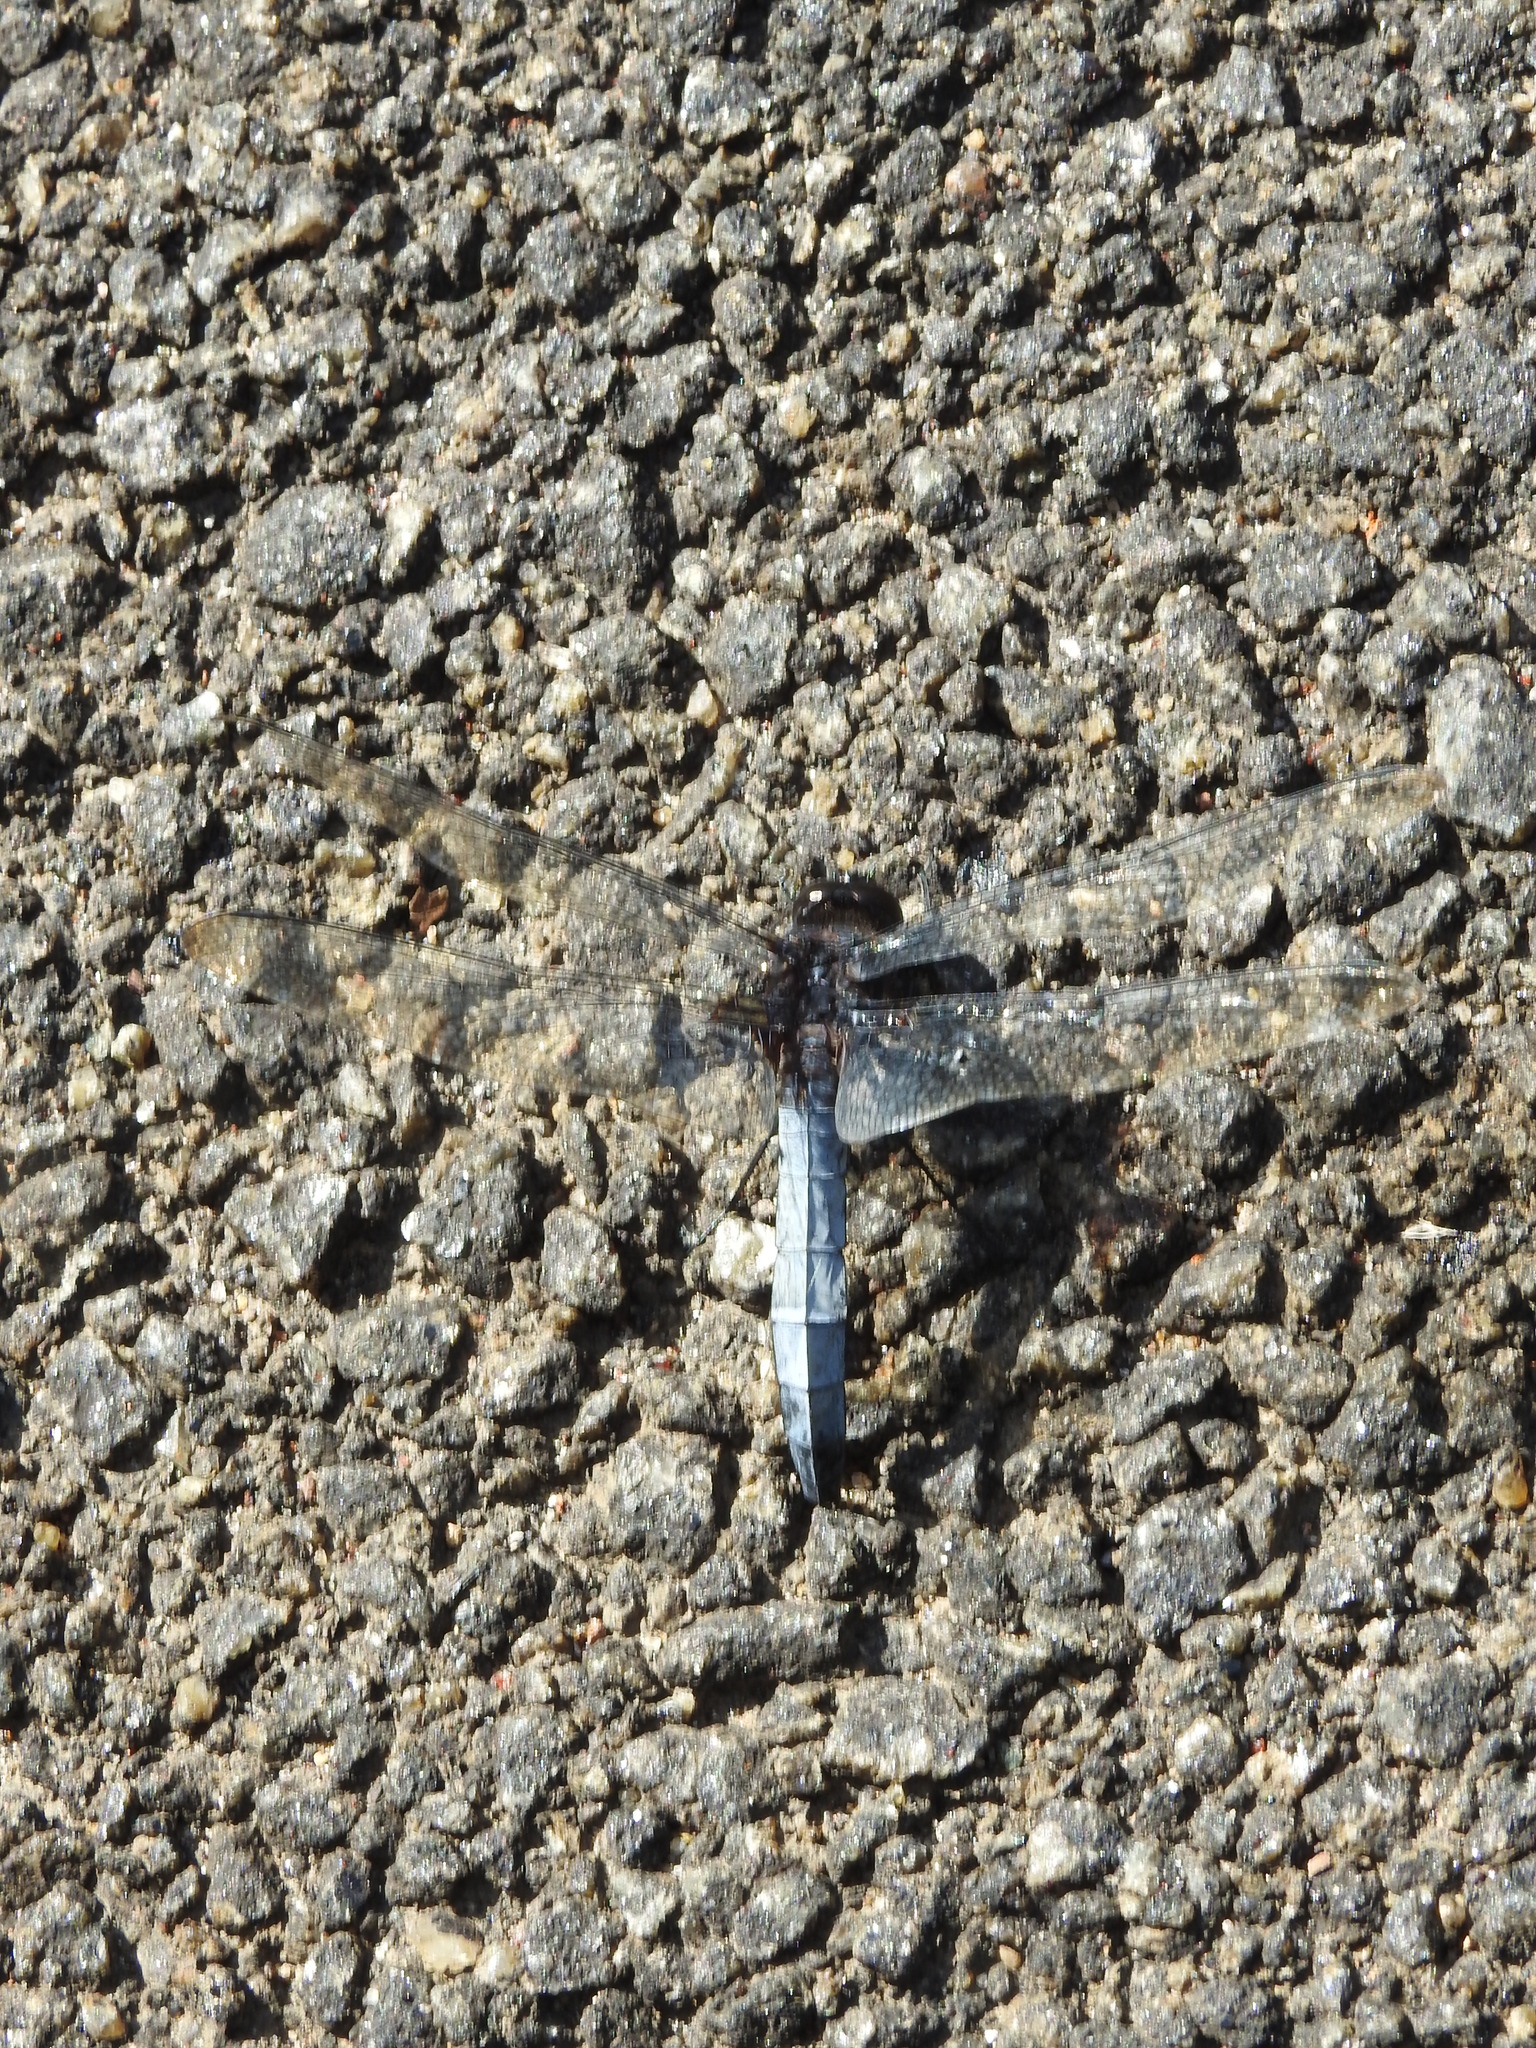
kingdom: Animalia
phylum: Arthropoda
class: Insecta
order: Odonata
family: Libellulidae
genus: Orthetrum
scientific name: Orthetrum triangulare
